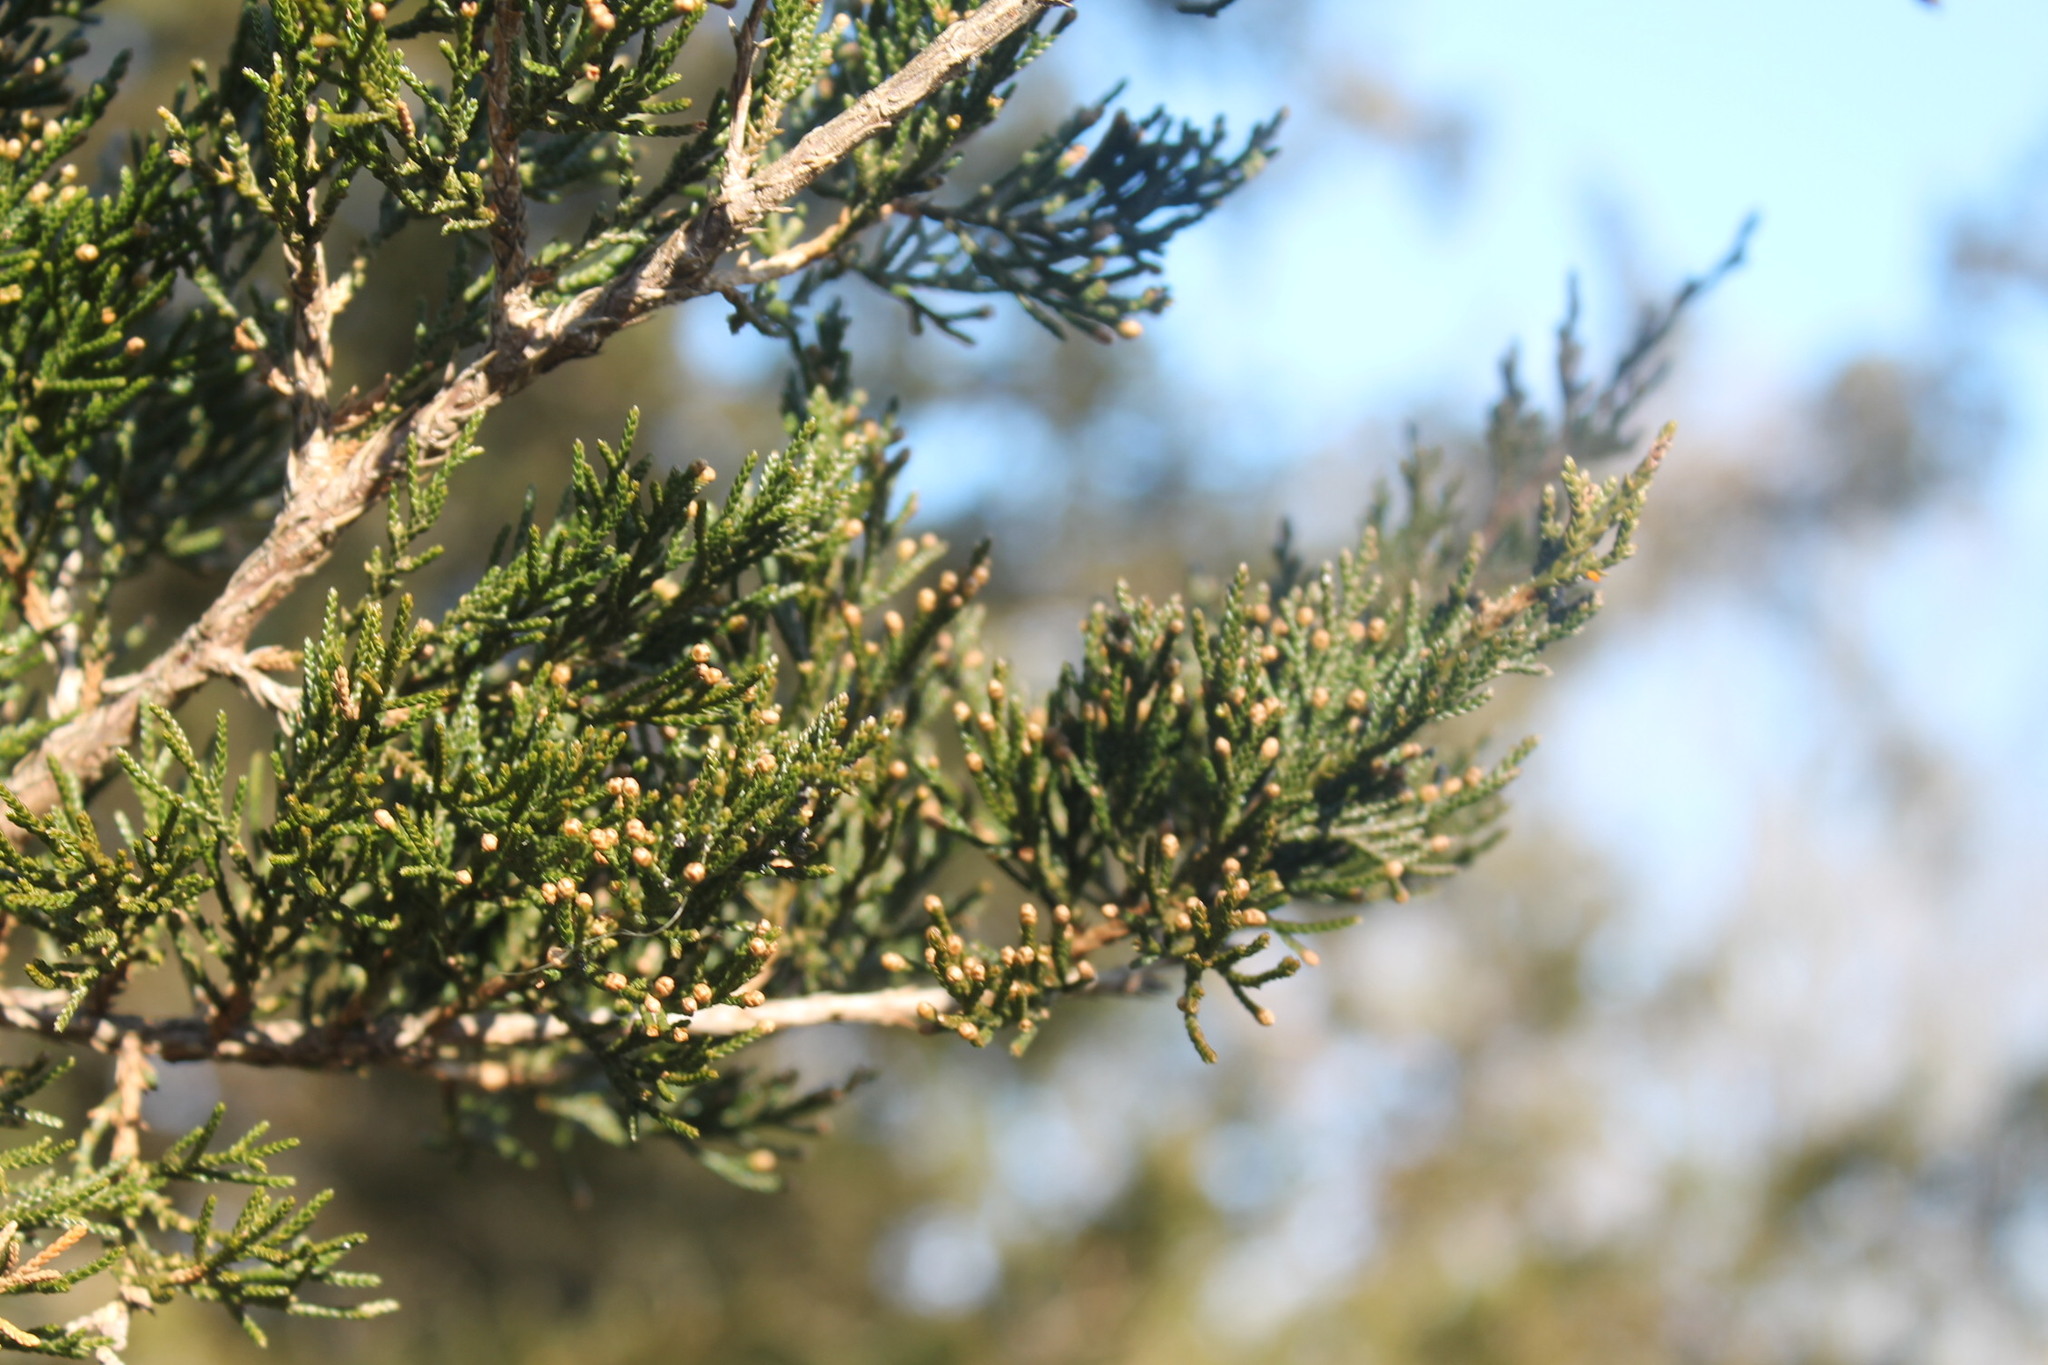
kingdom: Plantae
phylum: Tracheophyta
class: Pinopsida
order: Pinales
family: Cupressaceae
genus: Juniperus
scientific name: Juniperus virginiana
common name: Red juniper
